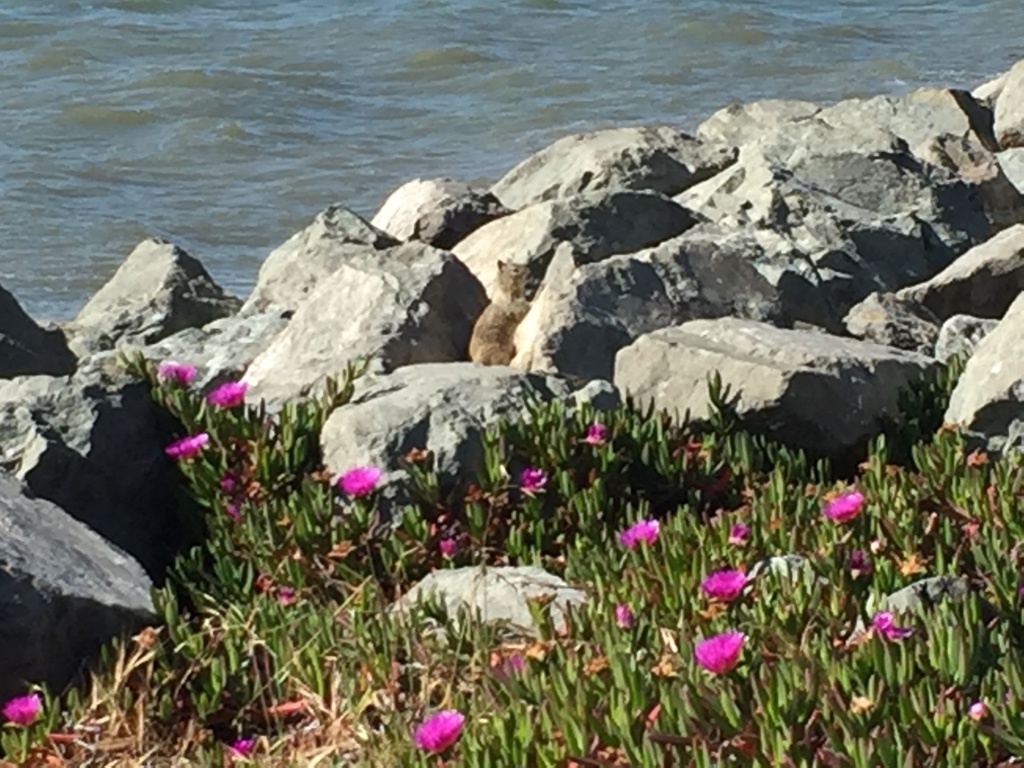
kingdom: Animalia
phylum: Chordata
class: Mammalia
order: Rodentia
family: Sciuridae
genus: Otospermophilus
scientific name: Otospermophilus beecheyi
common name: California ground squirrel
